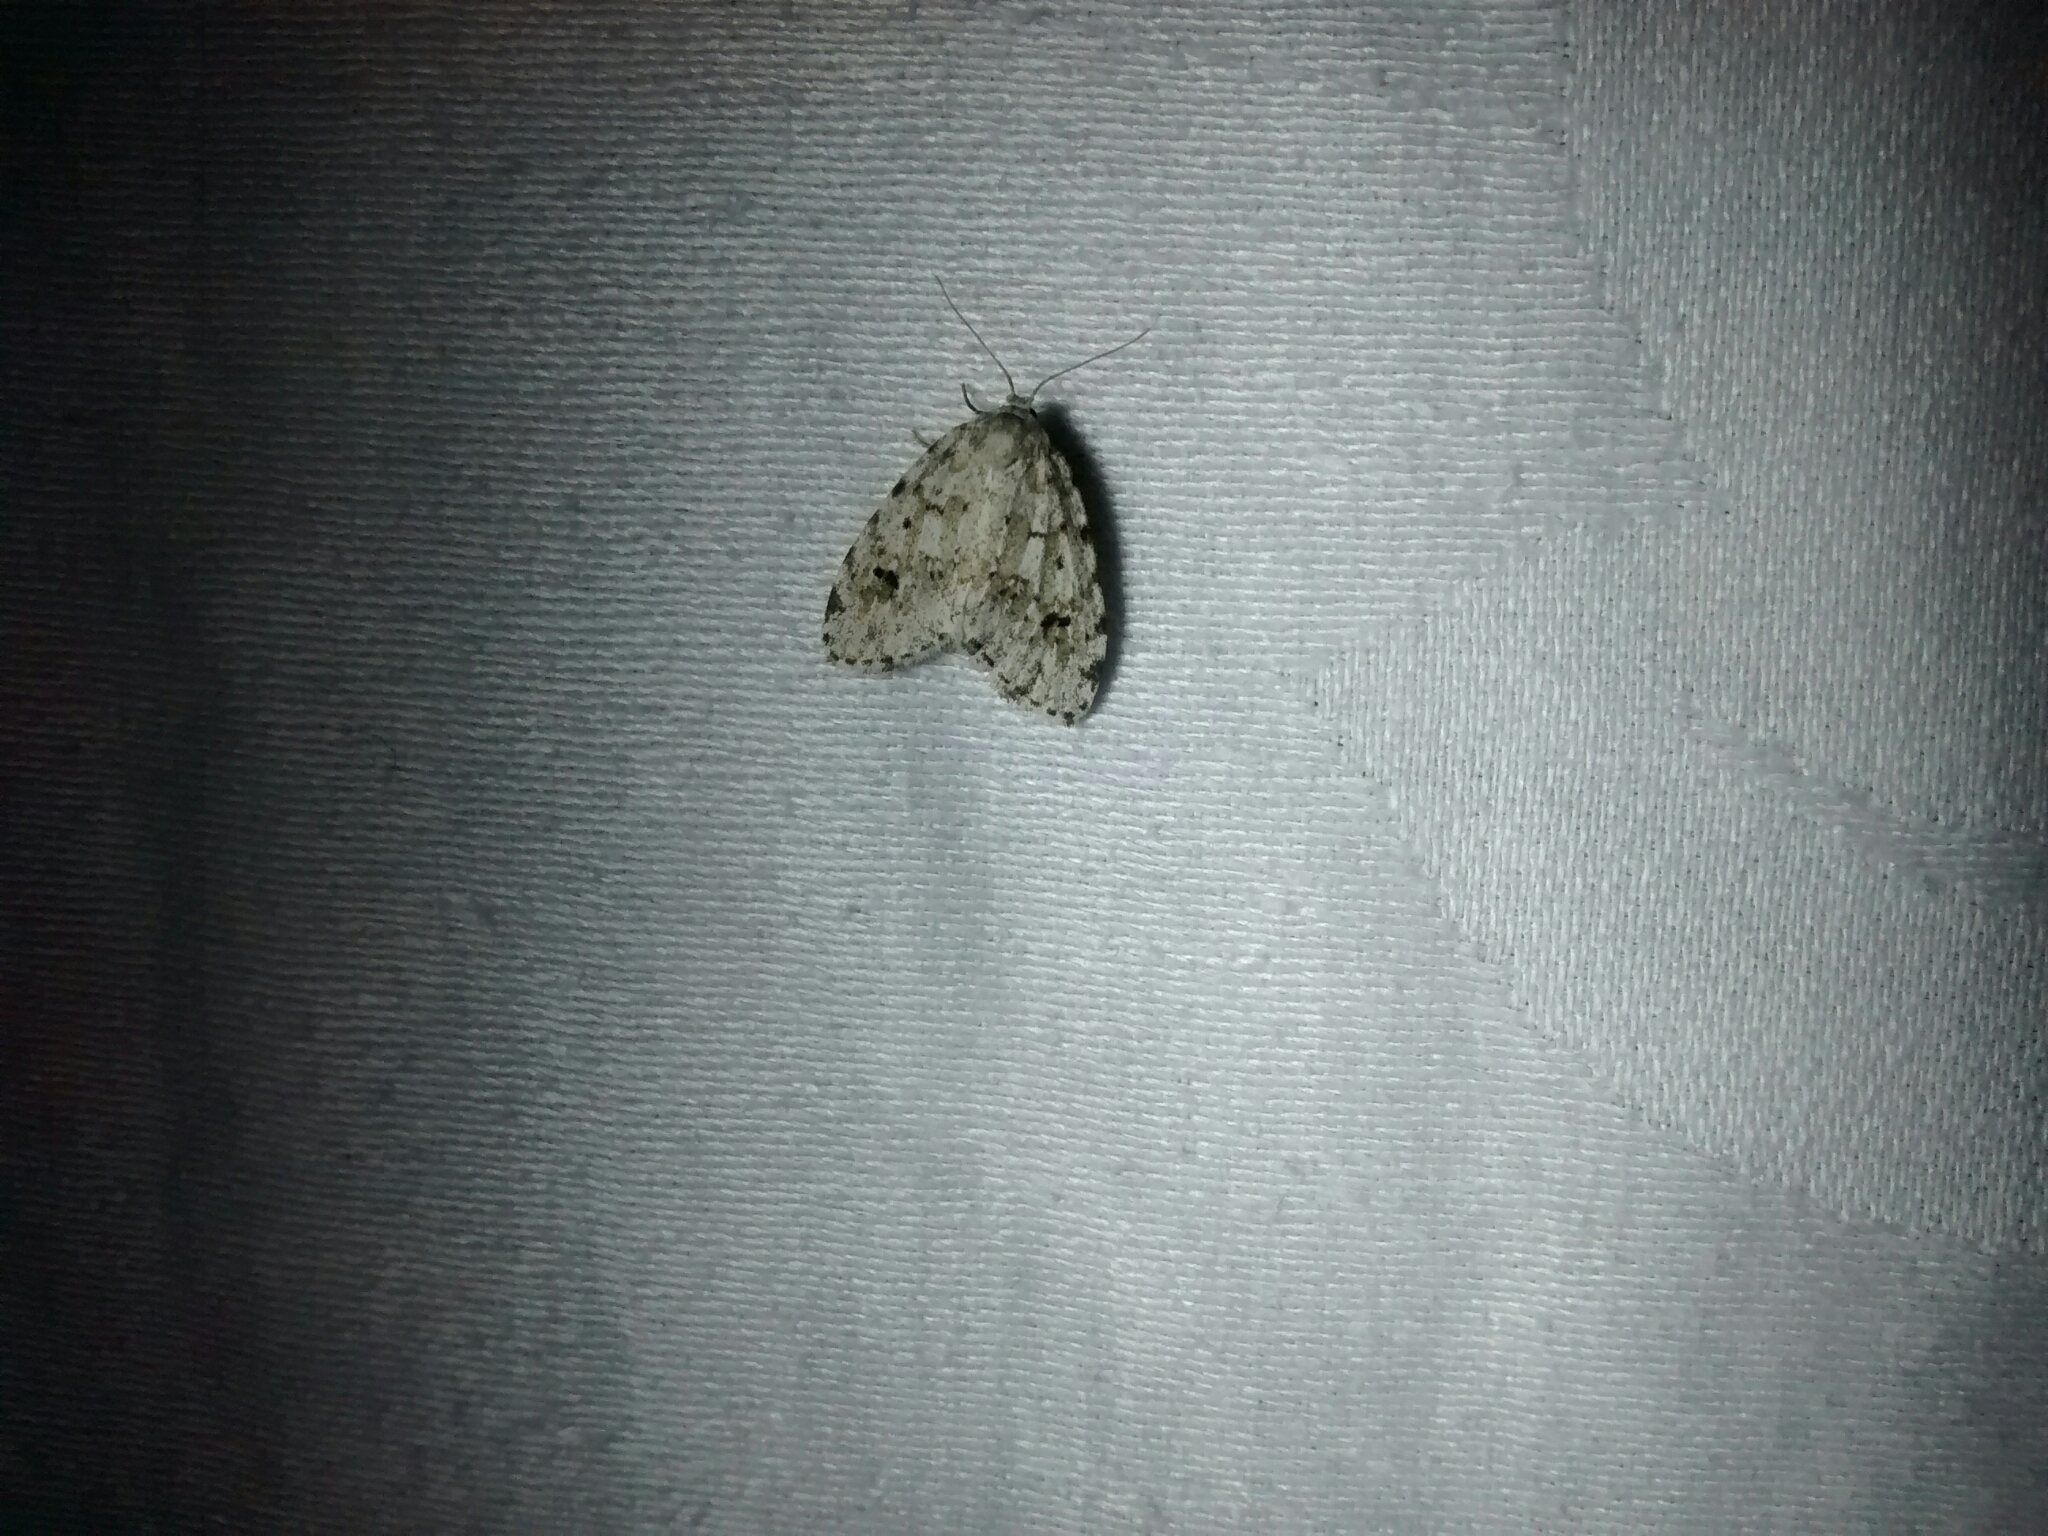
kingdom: Animalia
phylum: Arthropoda
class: Insecta
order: Lepidoptera
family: Erebidae
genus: Clemensia
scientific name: Clemensia albata
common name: Little white lichen moth
